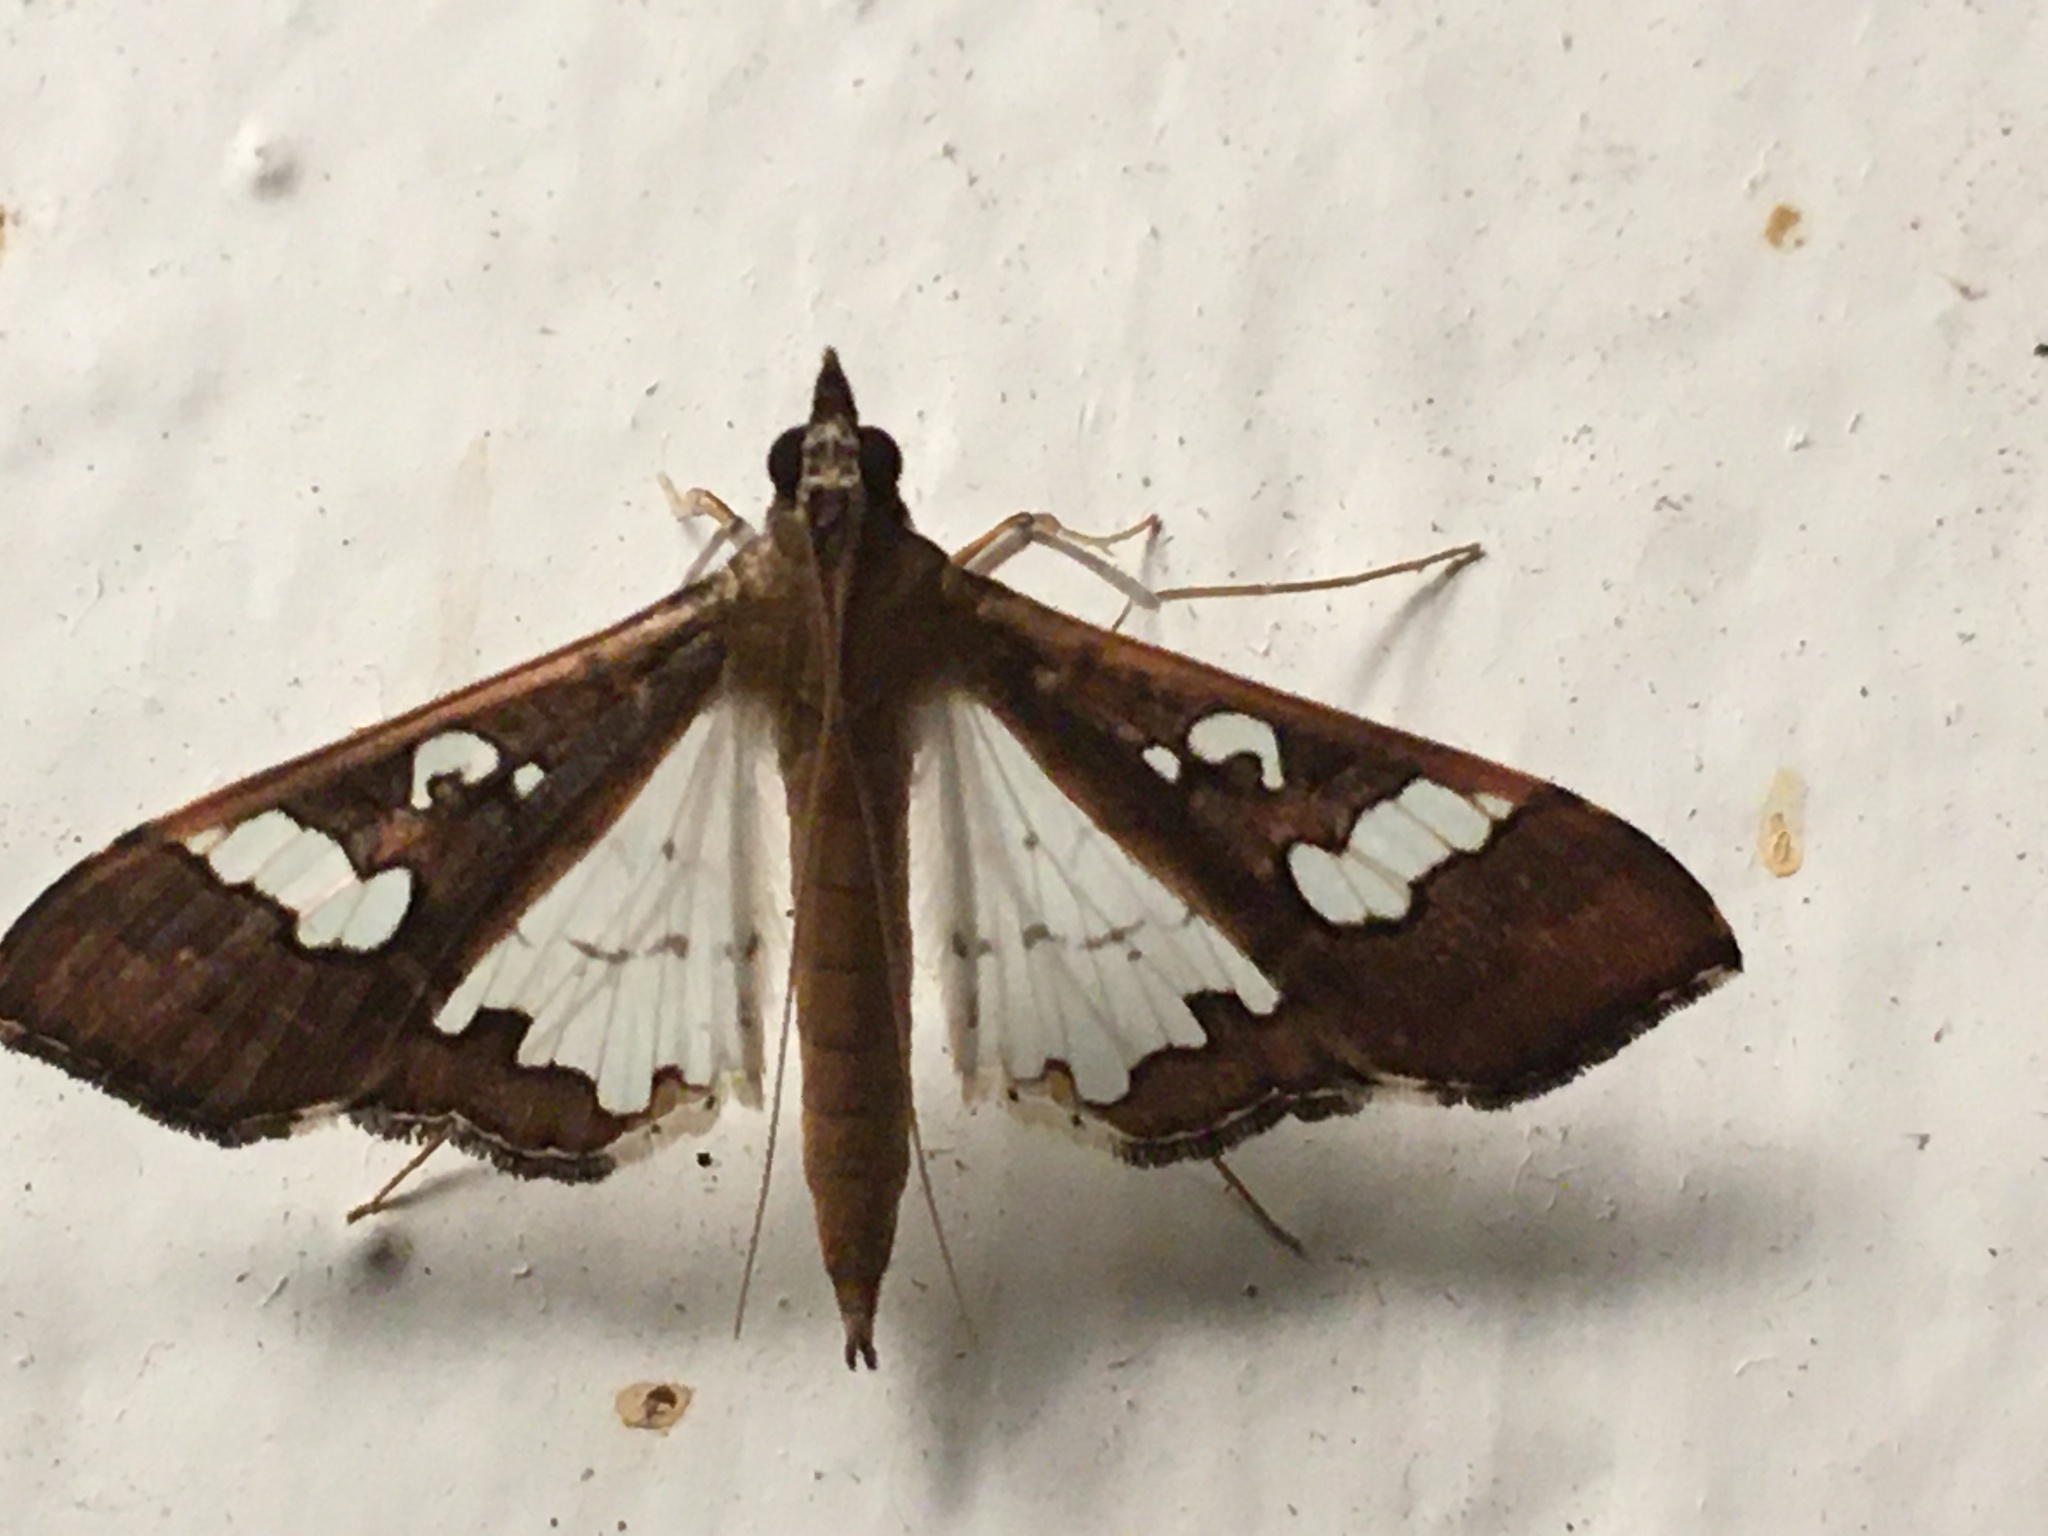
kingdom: Animalia
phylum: Arthropoda
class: Insecta
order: Lepidoptera
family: Crambidae
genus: Maruca
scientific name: Maruca vitrata
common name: Maruca pod borer
